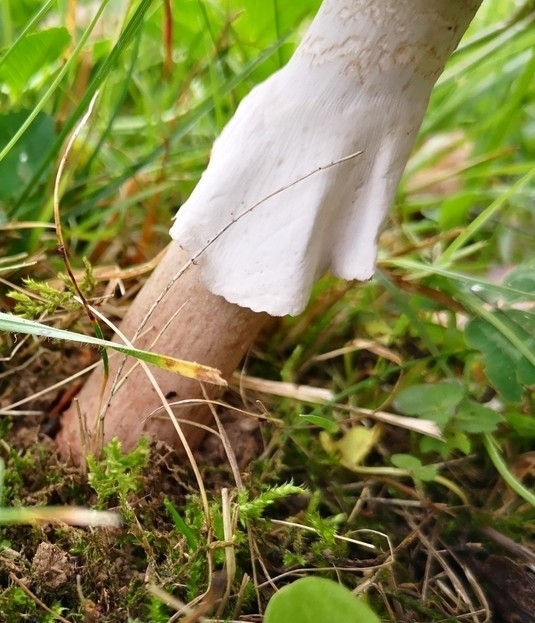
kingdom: Fungi
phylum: Basidiomycota
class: Agaricomycetes
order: Agaricales
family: Amanitaceae
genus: Amanita
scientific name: Amanita rubescens
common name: Blusher
